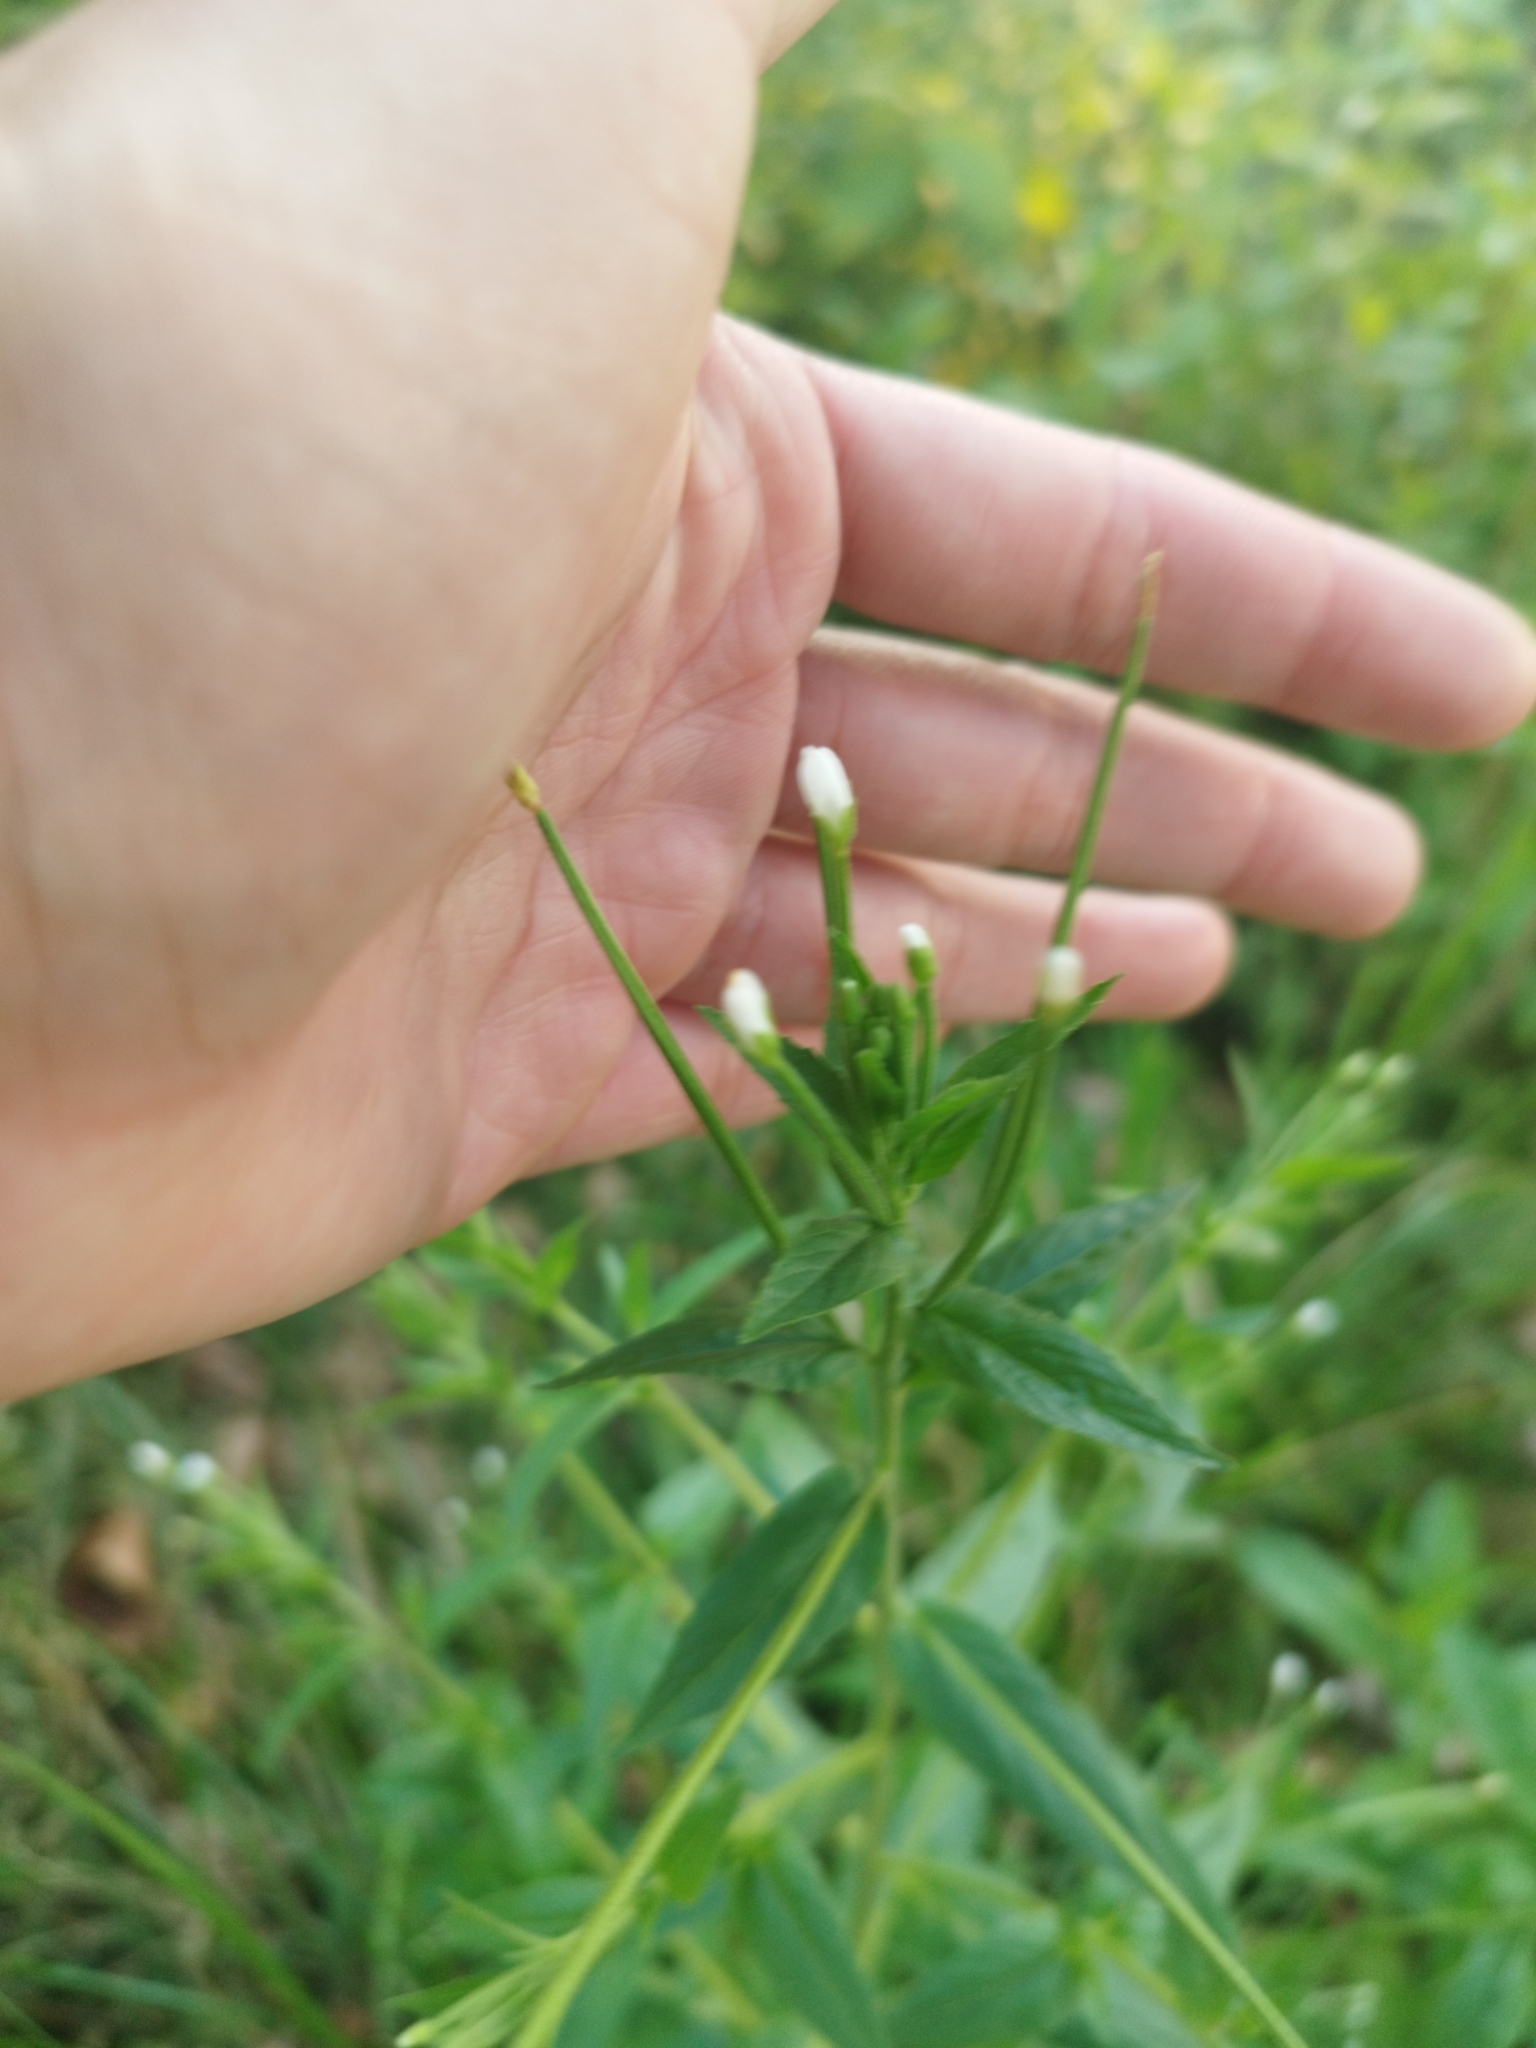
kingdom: Plantae
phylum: Tracheophyta
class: Magnoliopsida
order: Myrtales
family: Onagraceae
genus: Epilobium
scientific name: Epilobium pseudorubescens
